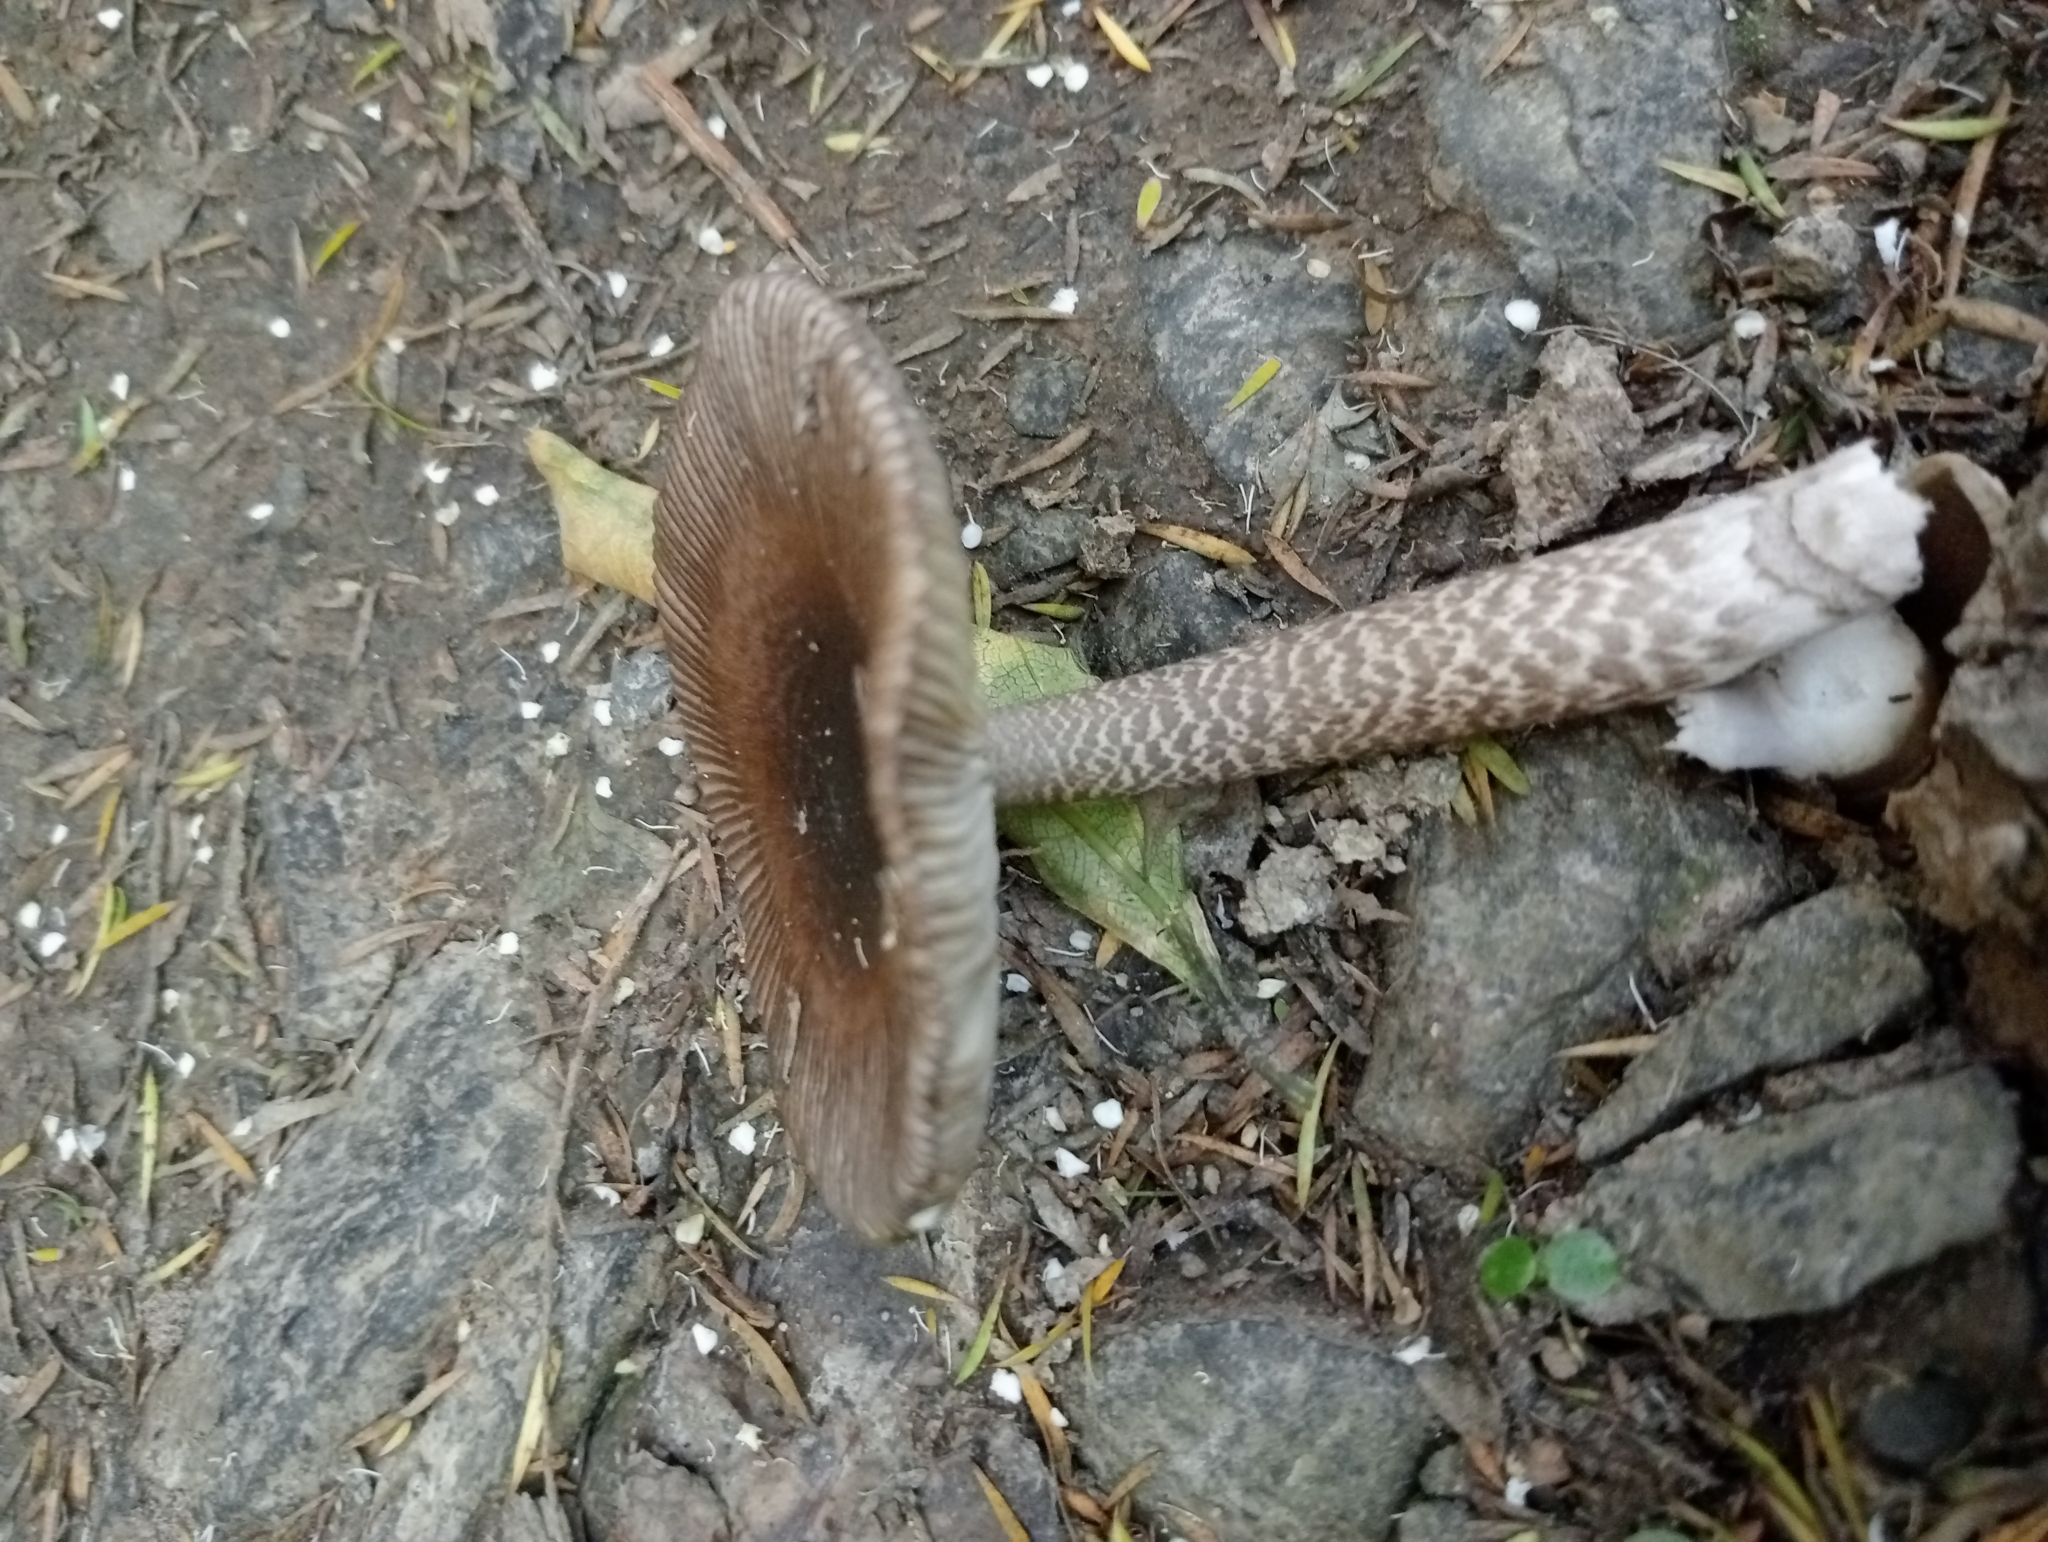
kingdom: Fungi
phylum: Basidiomycota
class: Agaricomycetes
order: Agaricales
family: Amanitaceae
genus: Amanita
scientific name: Amanita pekeoides
